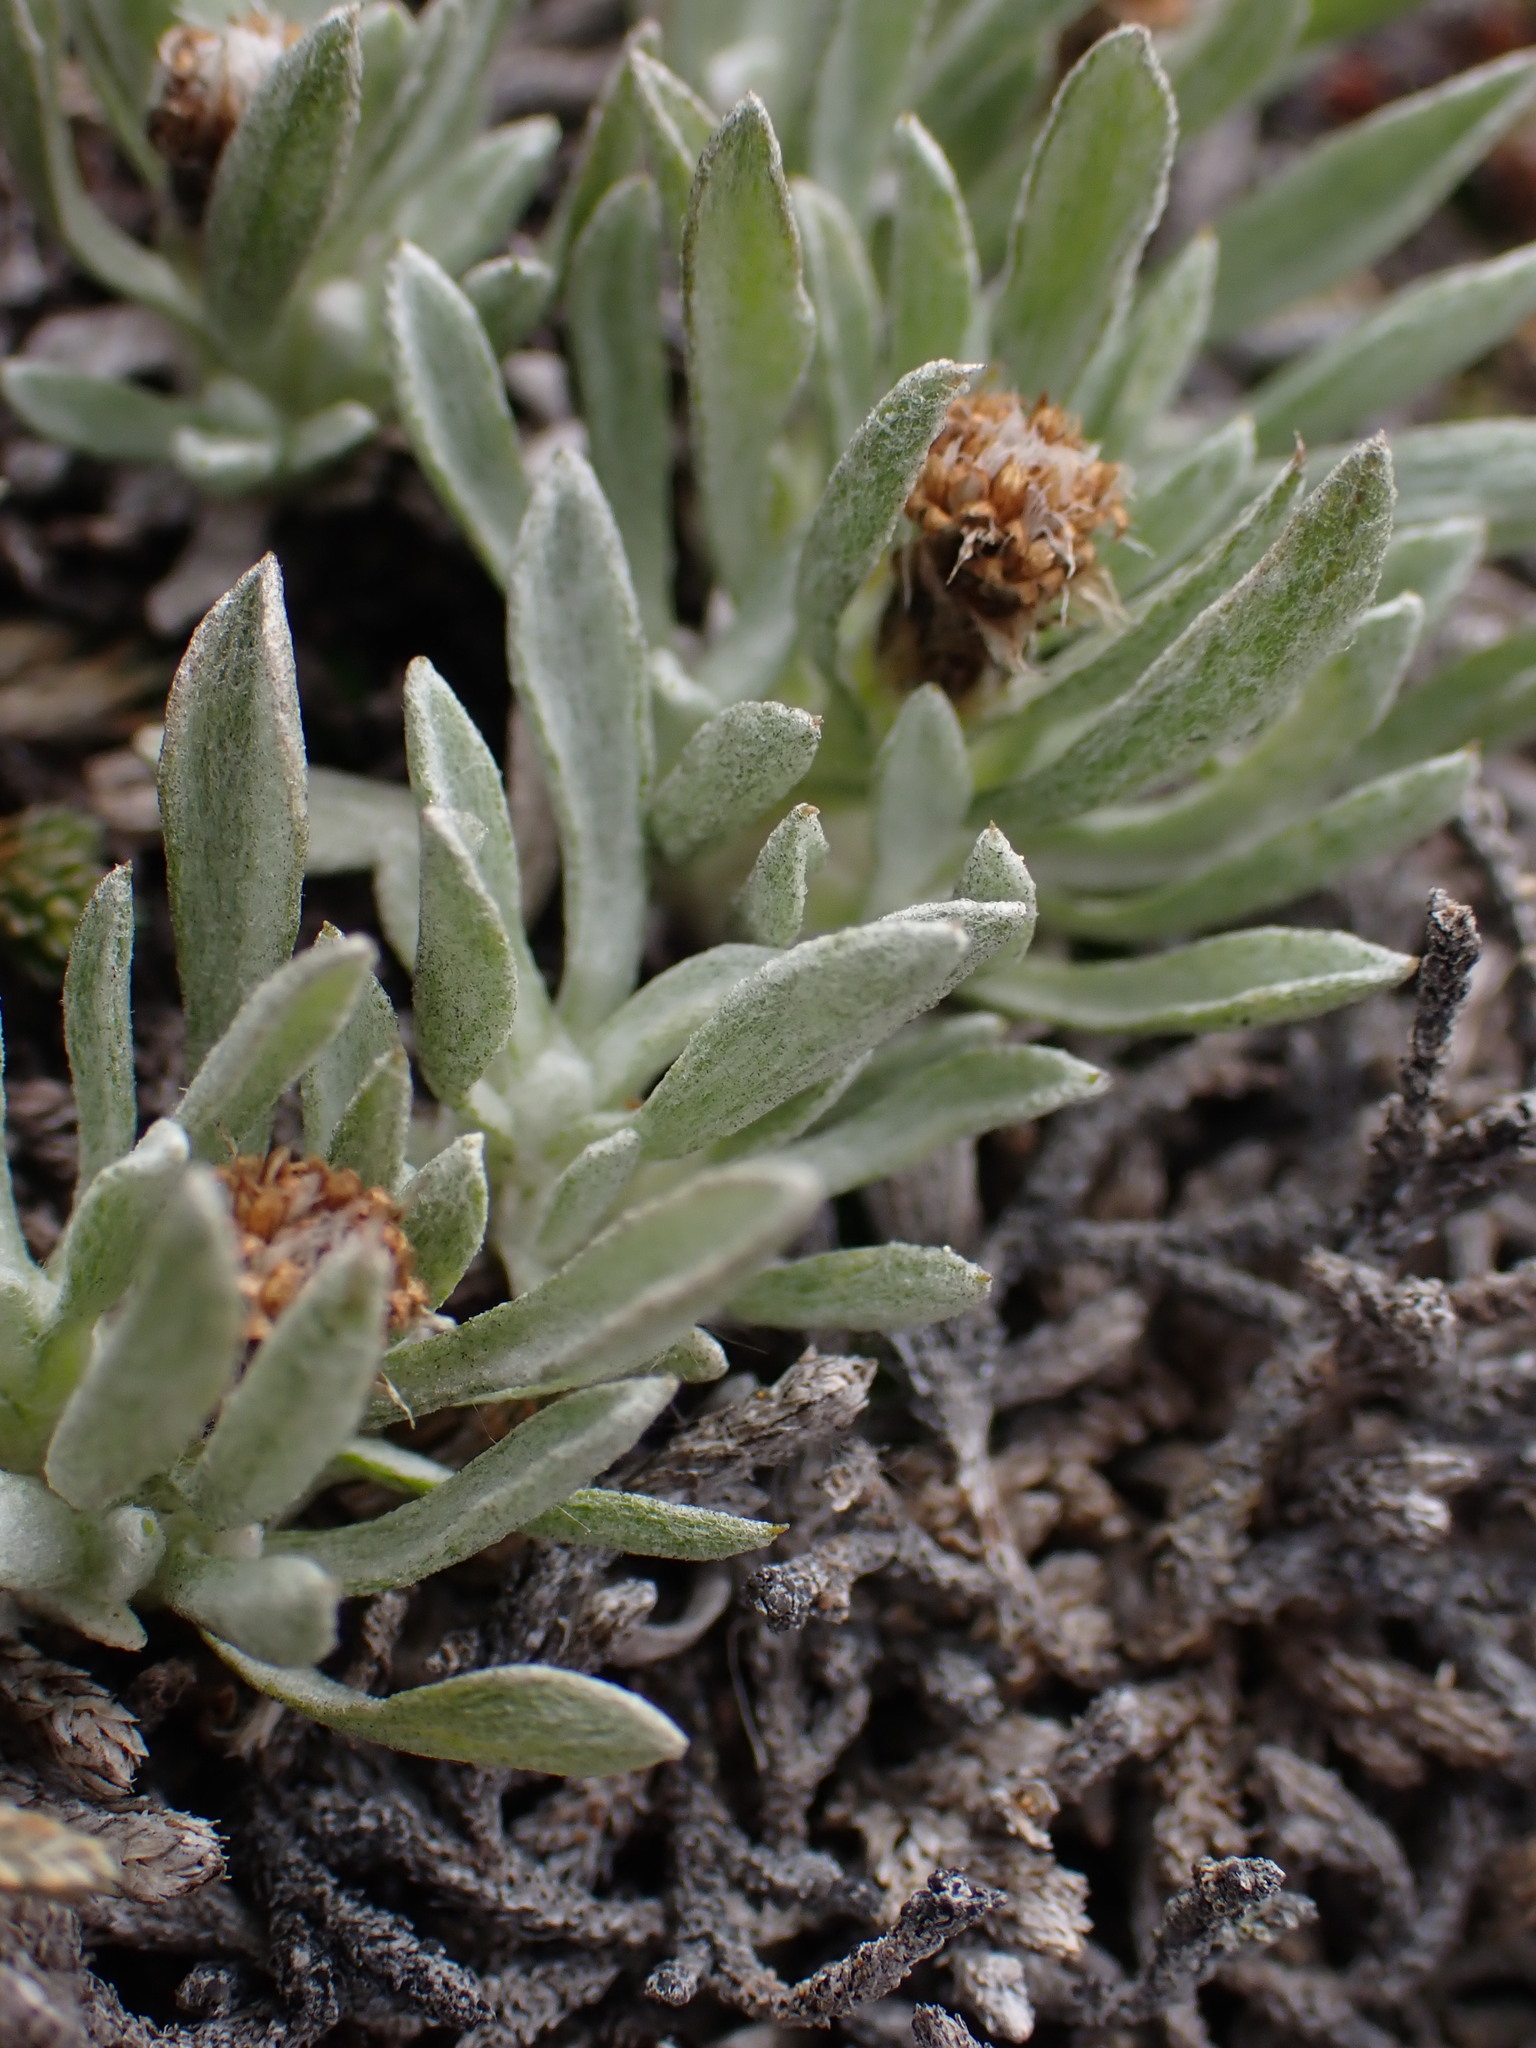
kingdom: Plantae
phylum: Tracheophyta
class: Magnoliopsida
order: Asterales
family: Asteraceae
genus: Antennaria
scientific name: Antennaria dimorpha
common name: Cushion pussytoes
